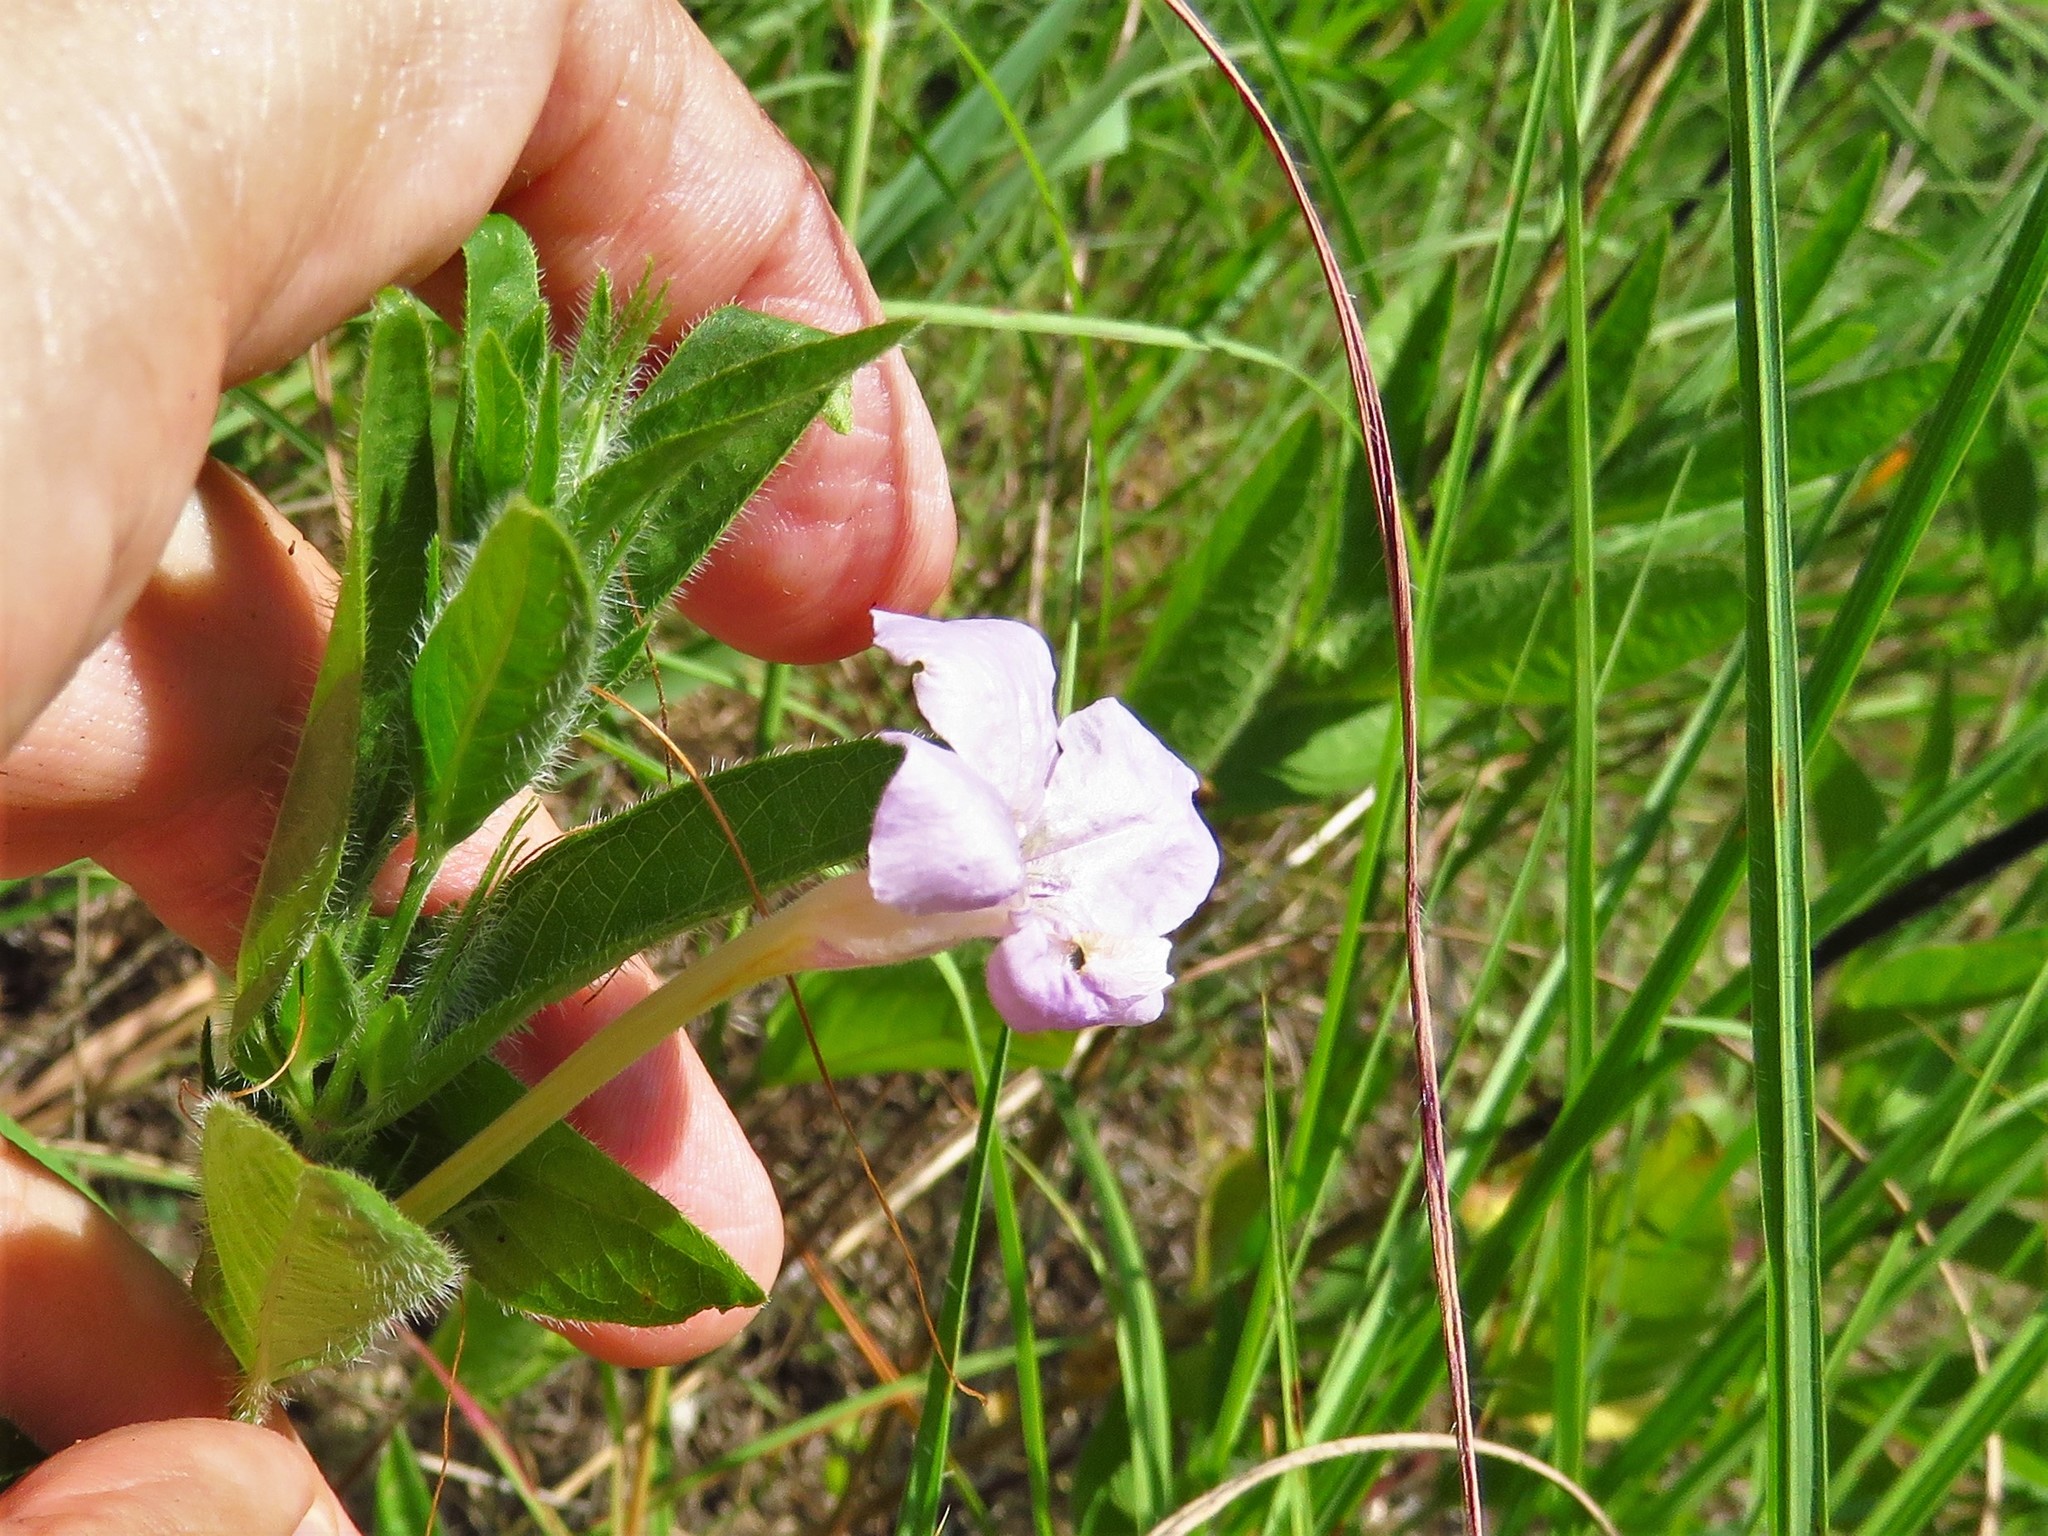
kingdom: Plantae
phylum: Tracheophyta
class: Magnoliopsida
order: Lamiales
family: Acanthaceae
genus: Ruellia
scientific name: Ruellia humilis
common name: Fringe-leaf ruellia
